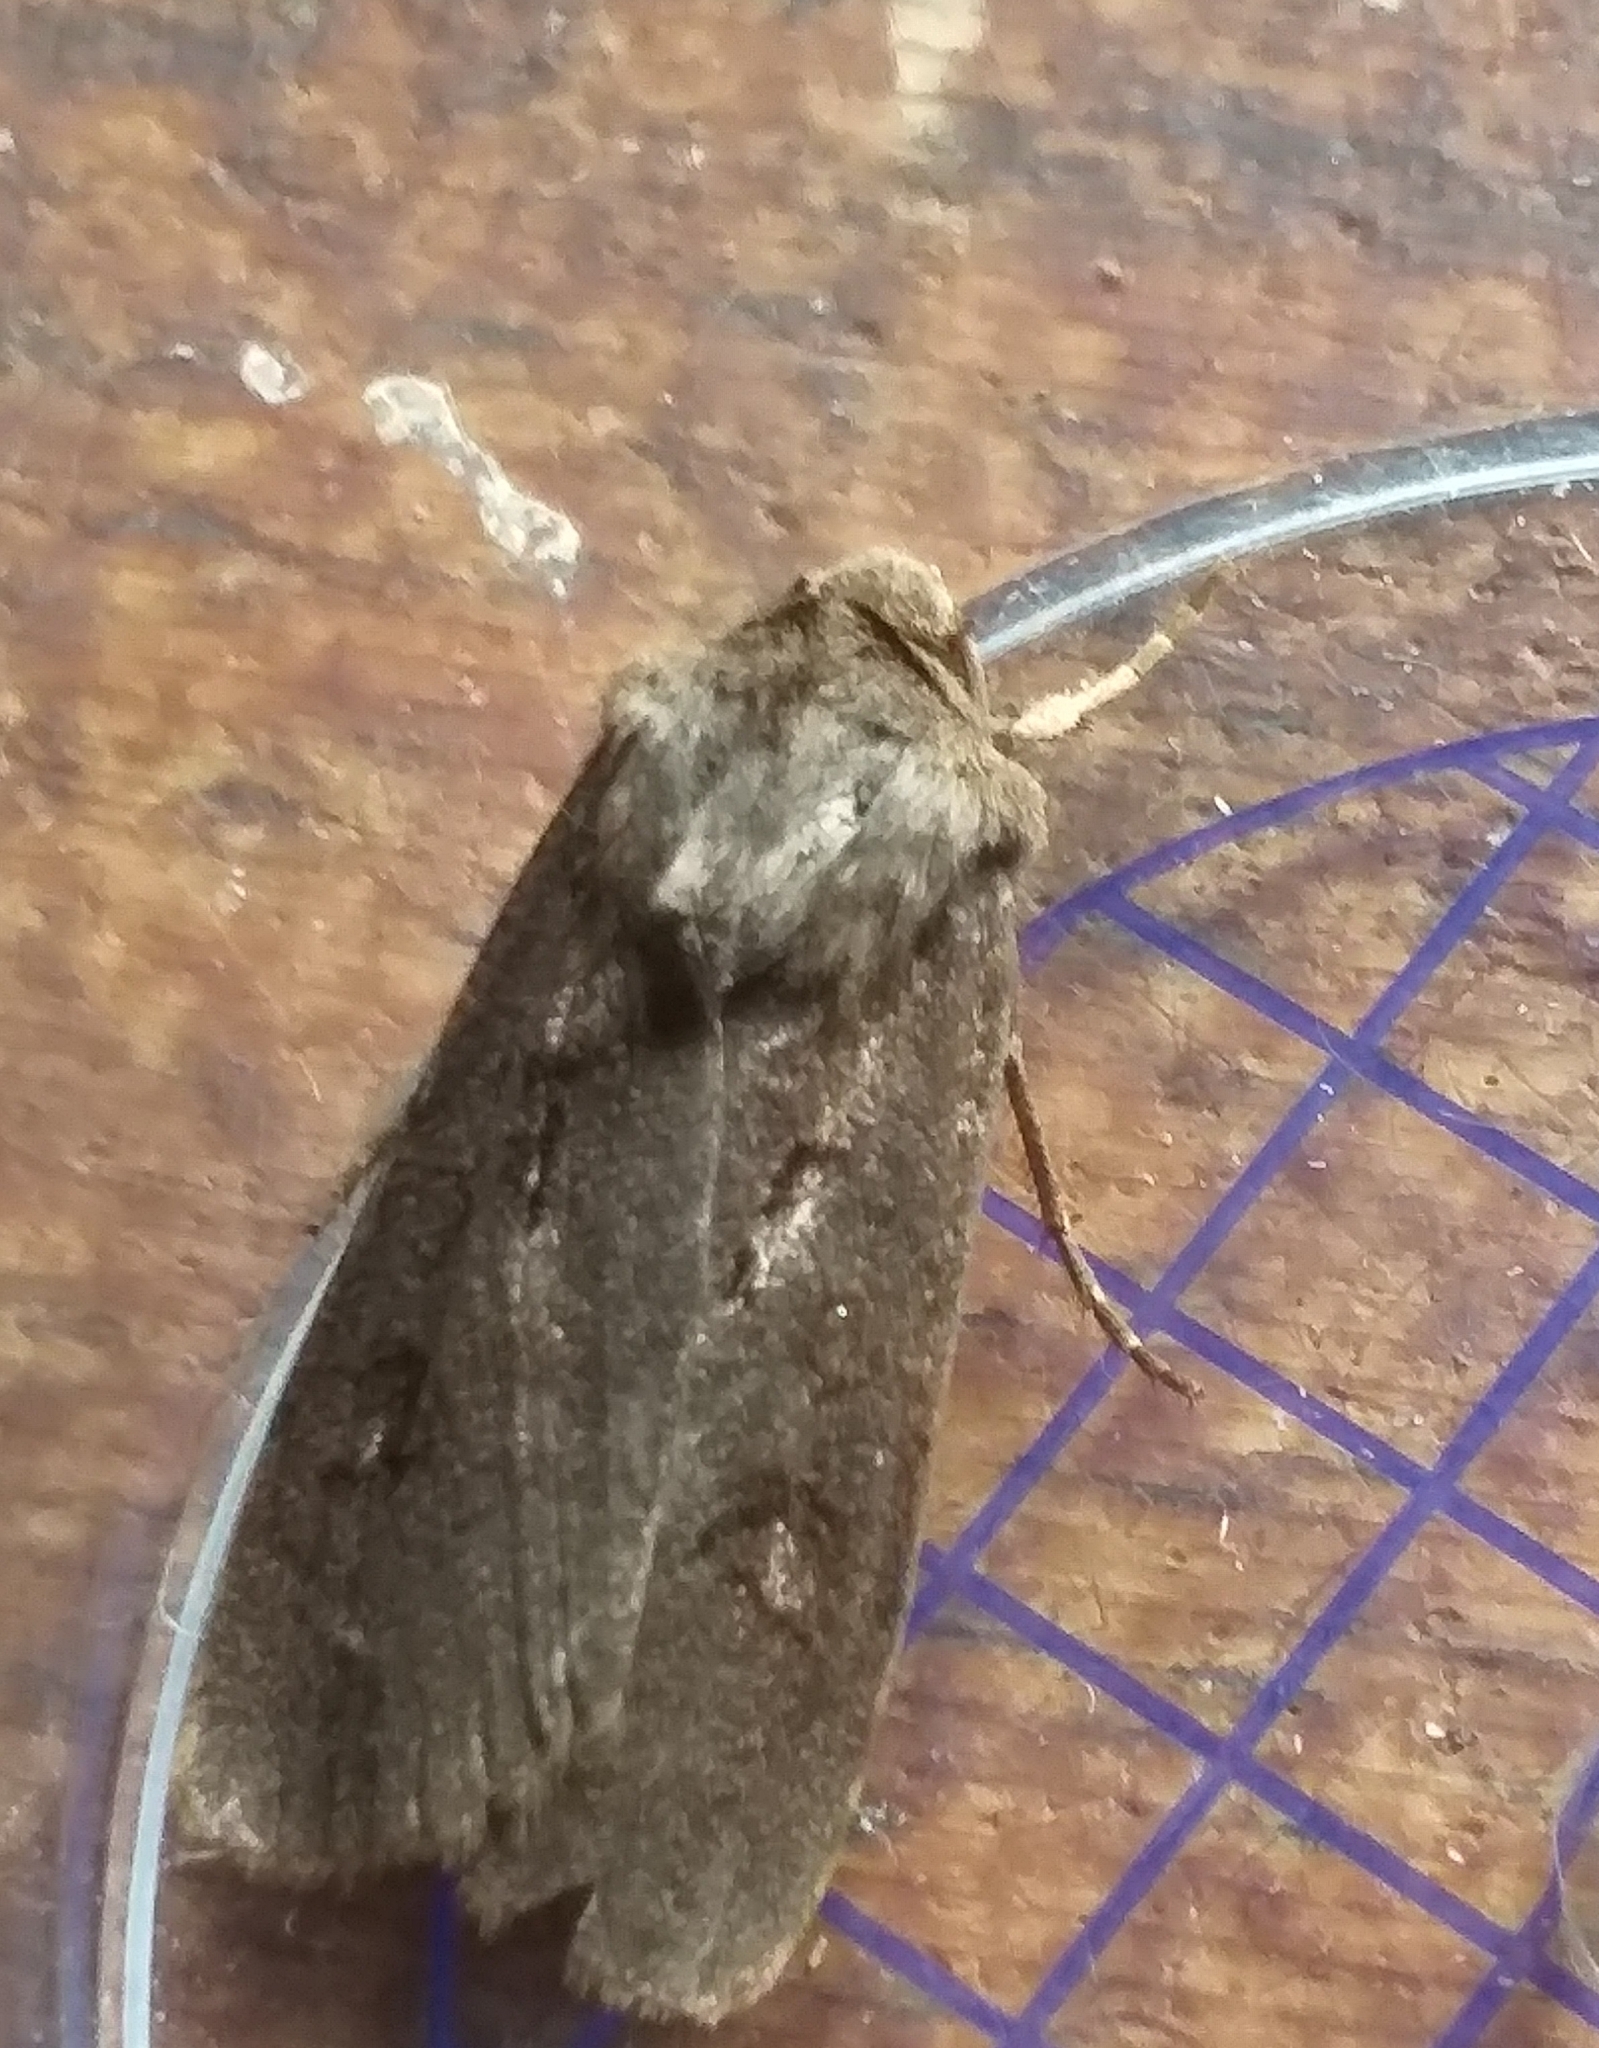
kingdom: Animalia
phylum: Arthropoda
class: Insecta
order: Lepidoptera
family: Noctuidae
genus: Agrotis
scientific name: Agrotis exclamationis
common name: Heart and dart
